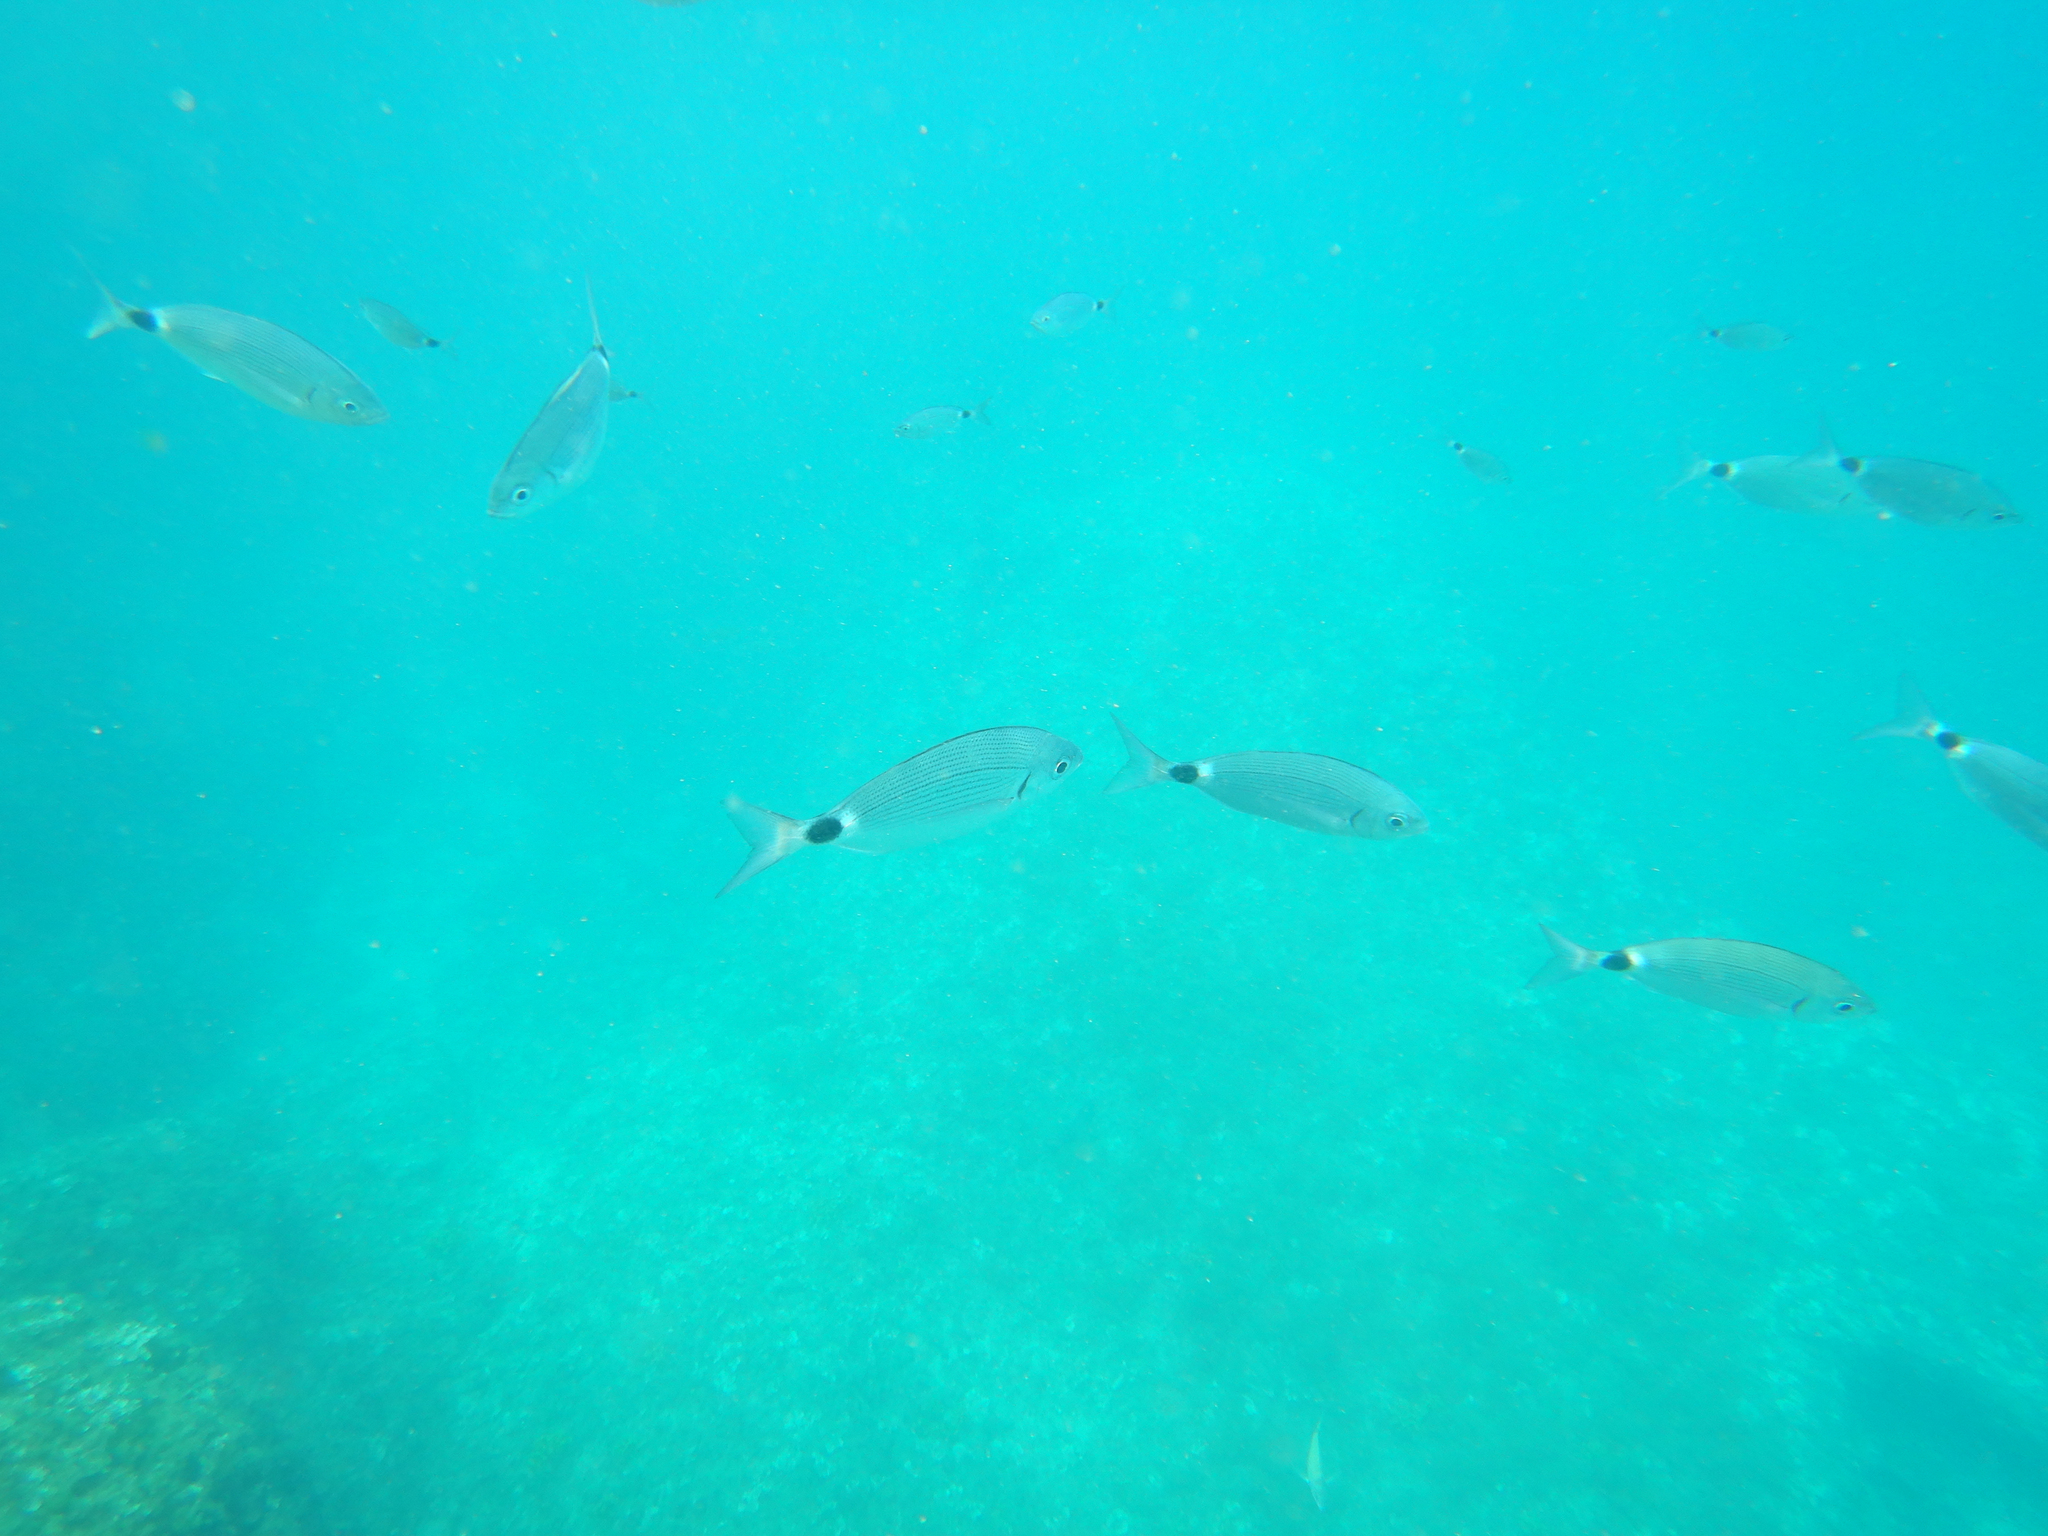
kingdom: Animalia
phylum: Chordata
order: Perciformes
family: Sparidae
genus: Oblada
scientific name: Oblada melanura
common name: Saddled seabream
